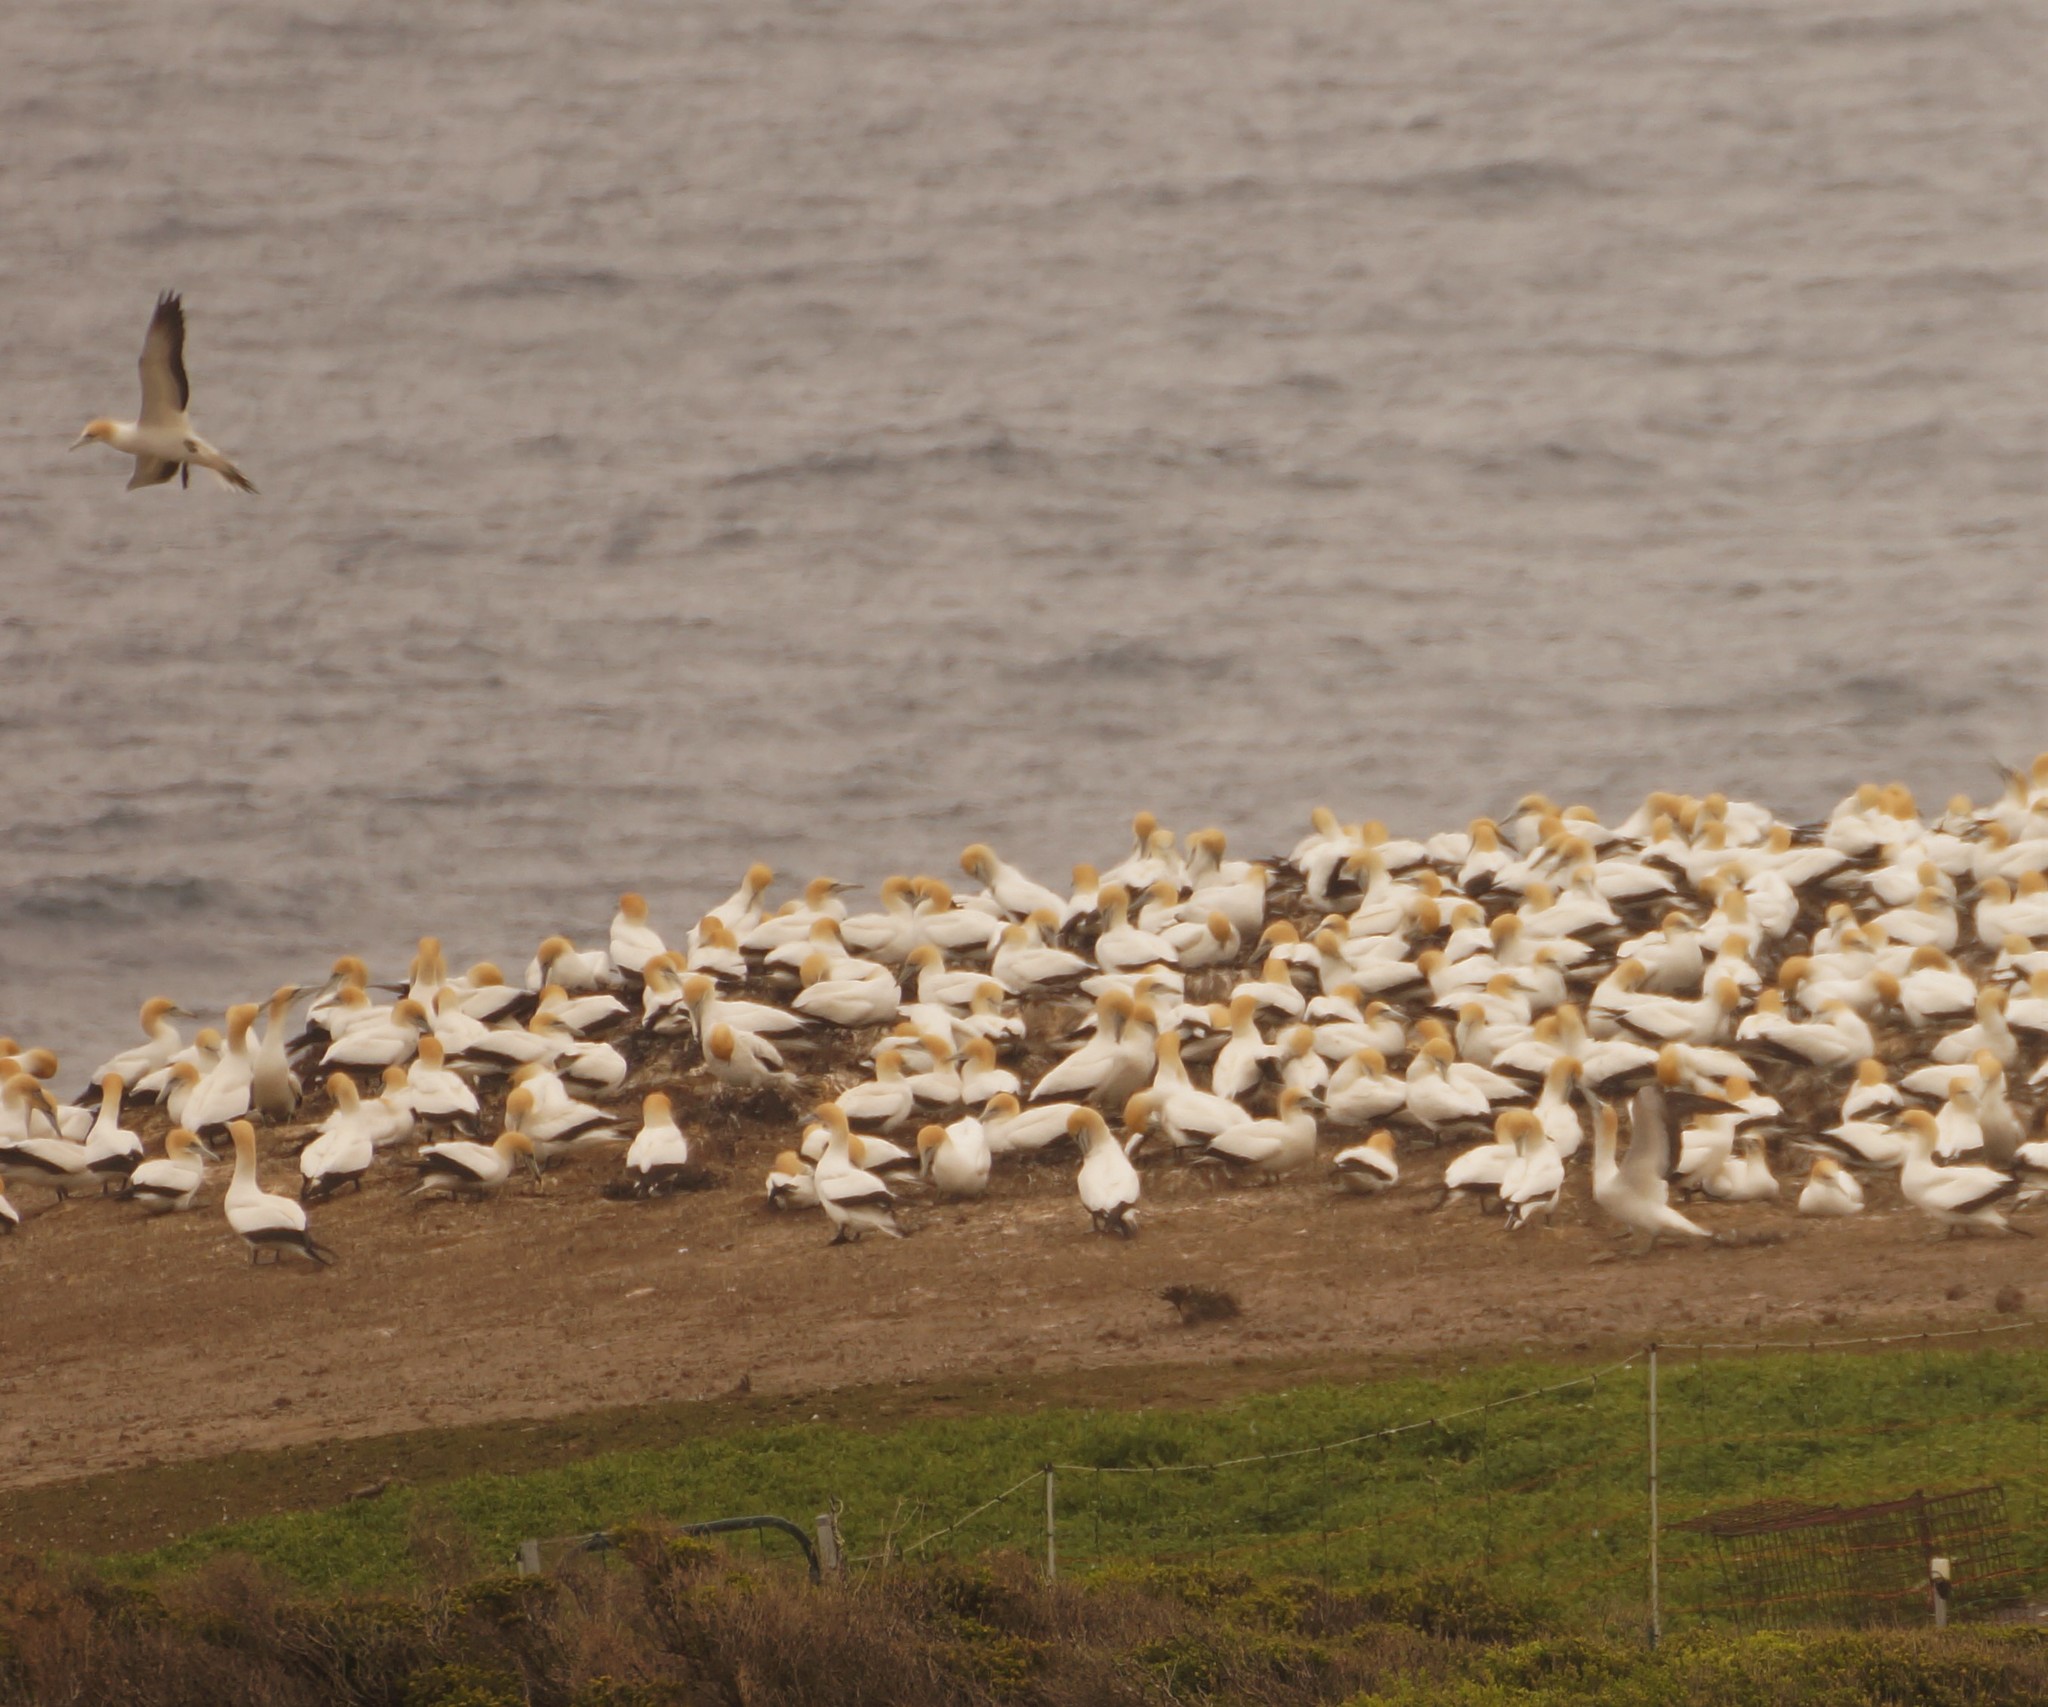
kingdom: Animalia
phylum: Chordata
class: Aves
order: Suliformes
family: Sulidae
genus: Morus
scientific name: Morus serrator
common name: Australasian gannet
